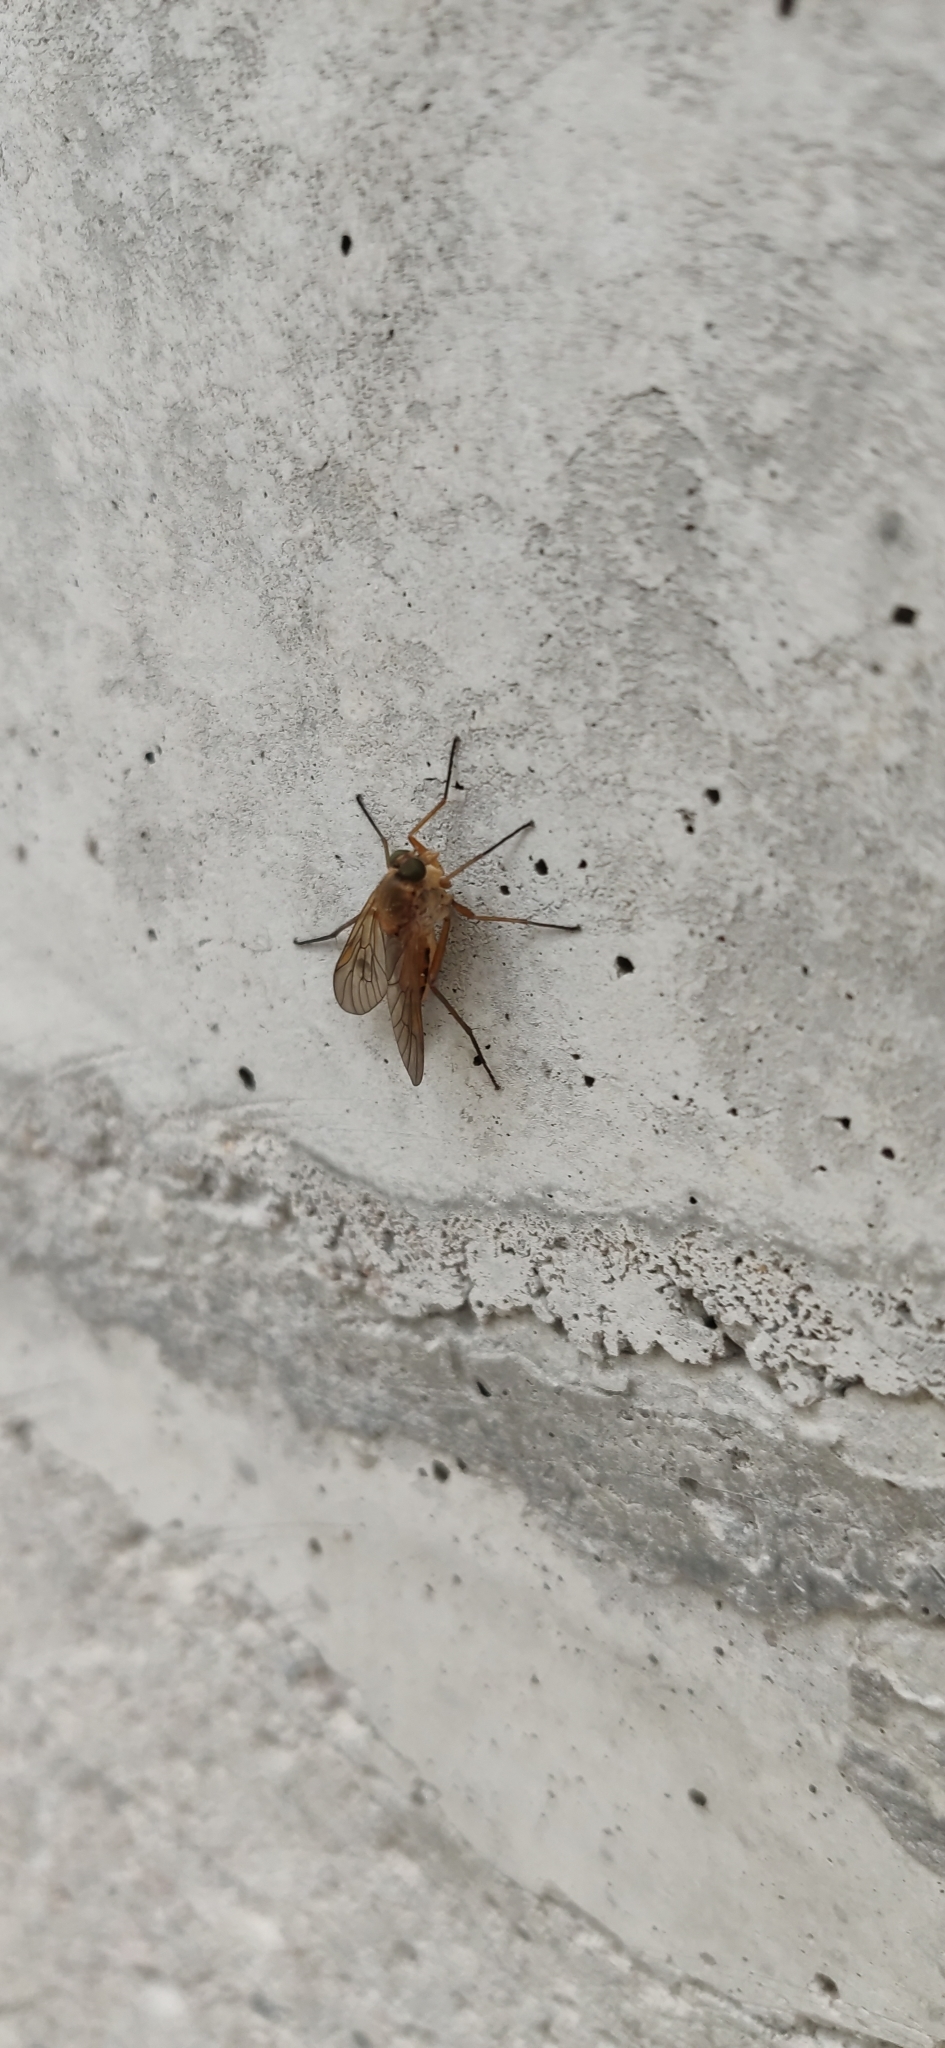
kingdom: Animalia
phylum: Arthropoda
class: Insecta
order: Diptera
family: Rhagionidae
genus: Rhagio
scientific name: Rhagio tringaria
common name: Marsh snipefly
